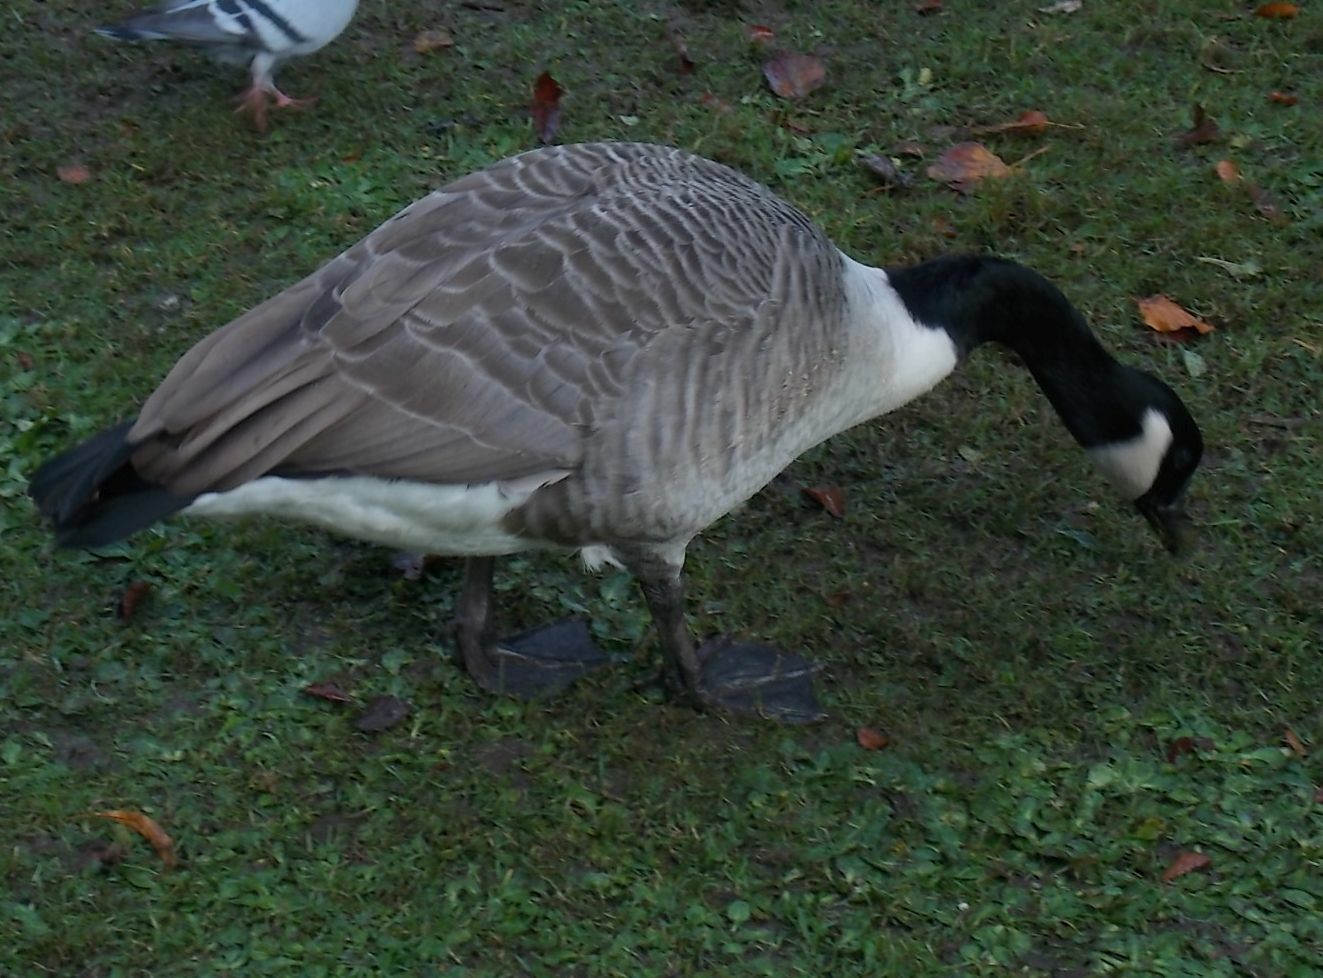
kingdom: Animalia
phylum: Chordata
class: Aves
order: Anseriformes
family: Anatidae
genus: Branta
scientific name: Branta canadensis
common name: Canada goose
